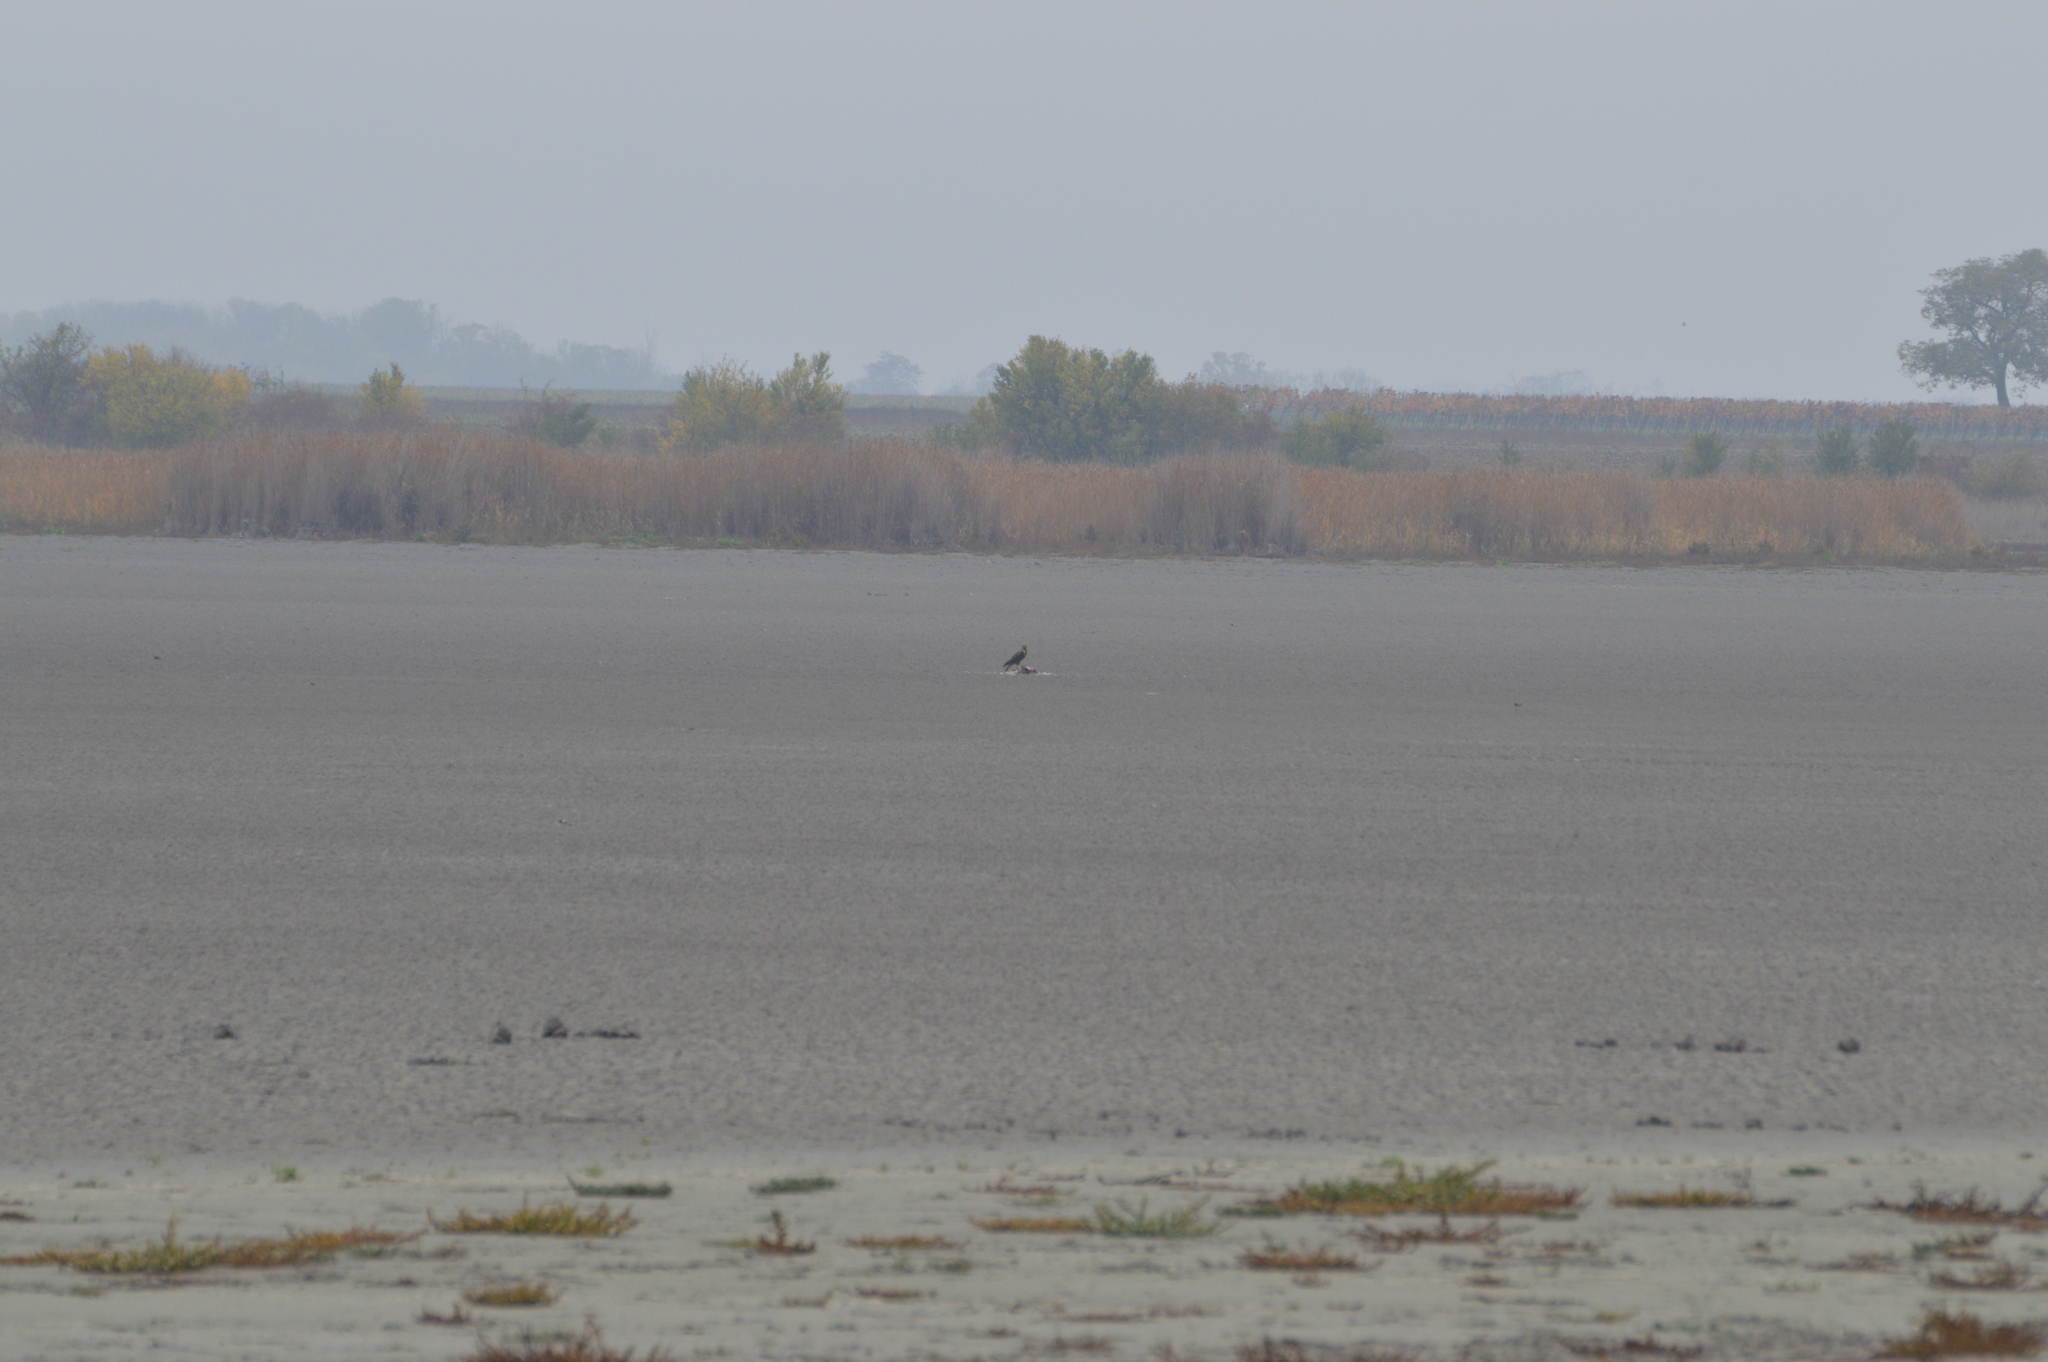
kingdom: Animalia
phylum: Chordata
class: Aves
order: Accipitriformes
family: Accipitridae
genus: Circus
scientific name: Circus aeruginosus
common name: Western marsh harrier
